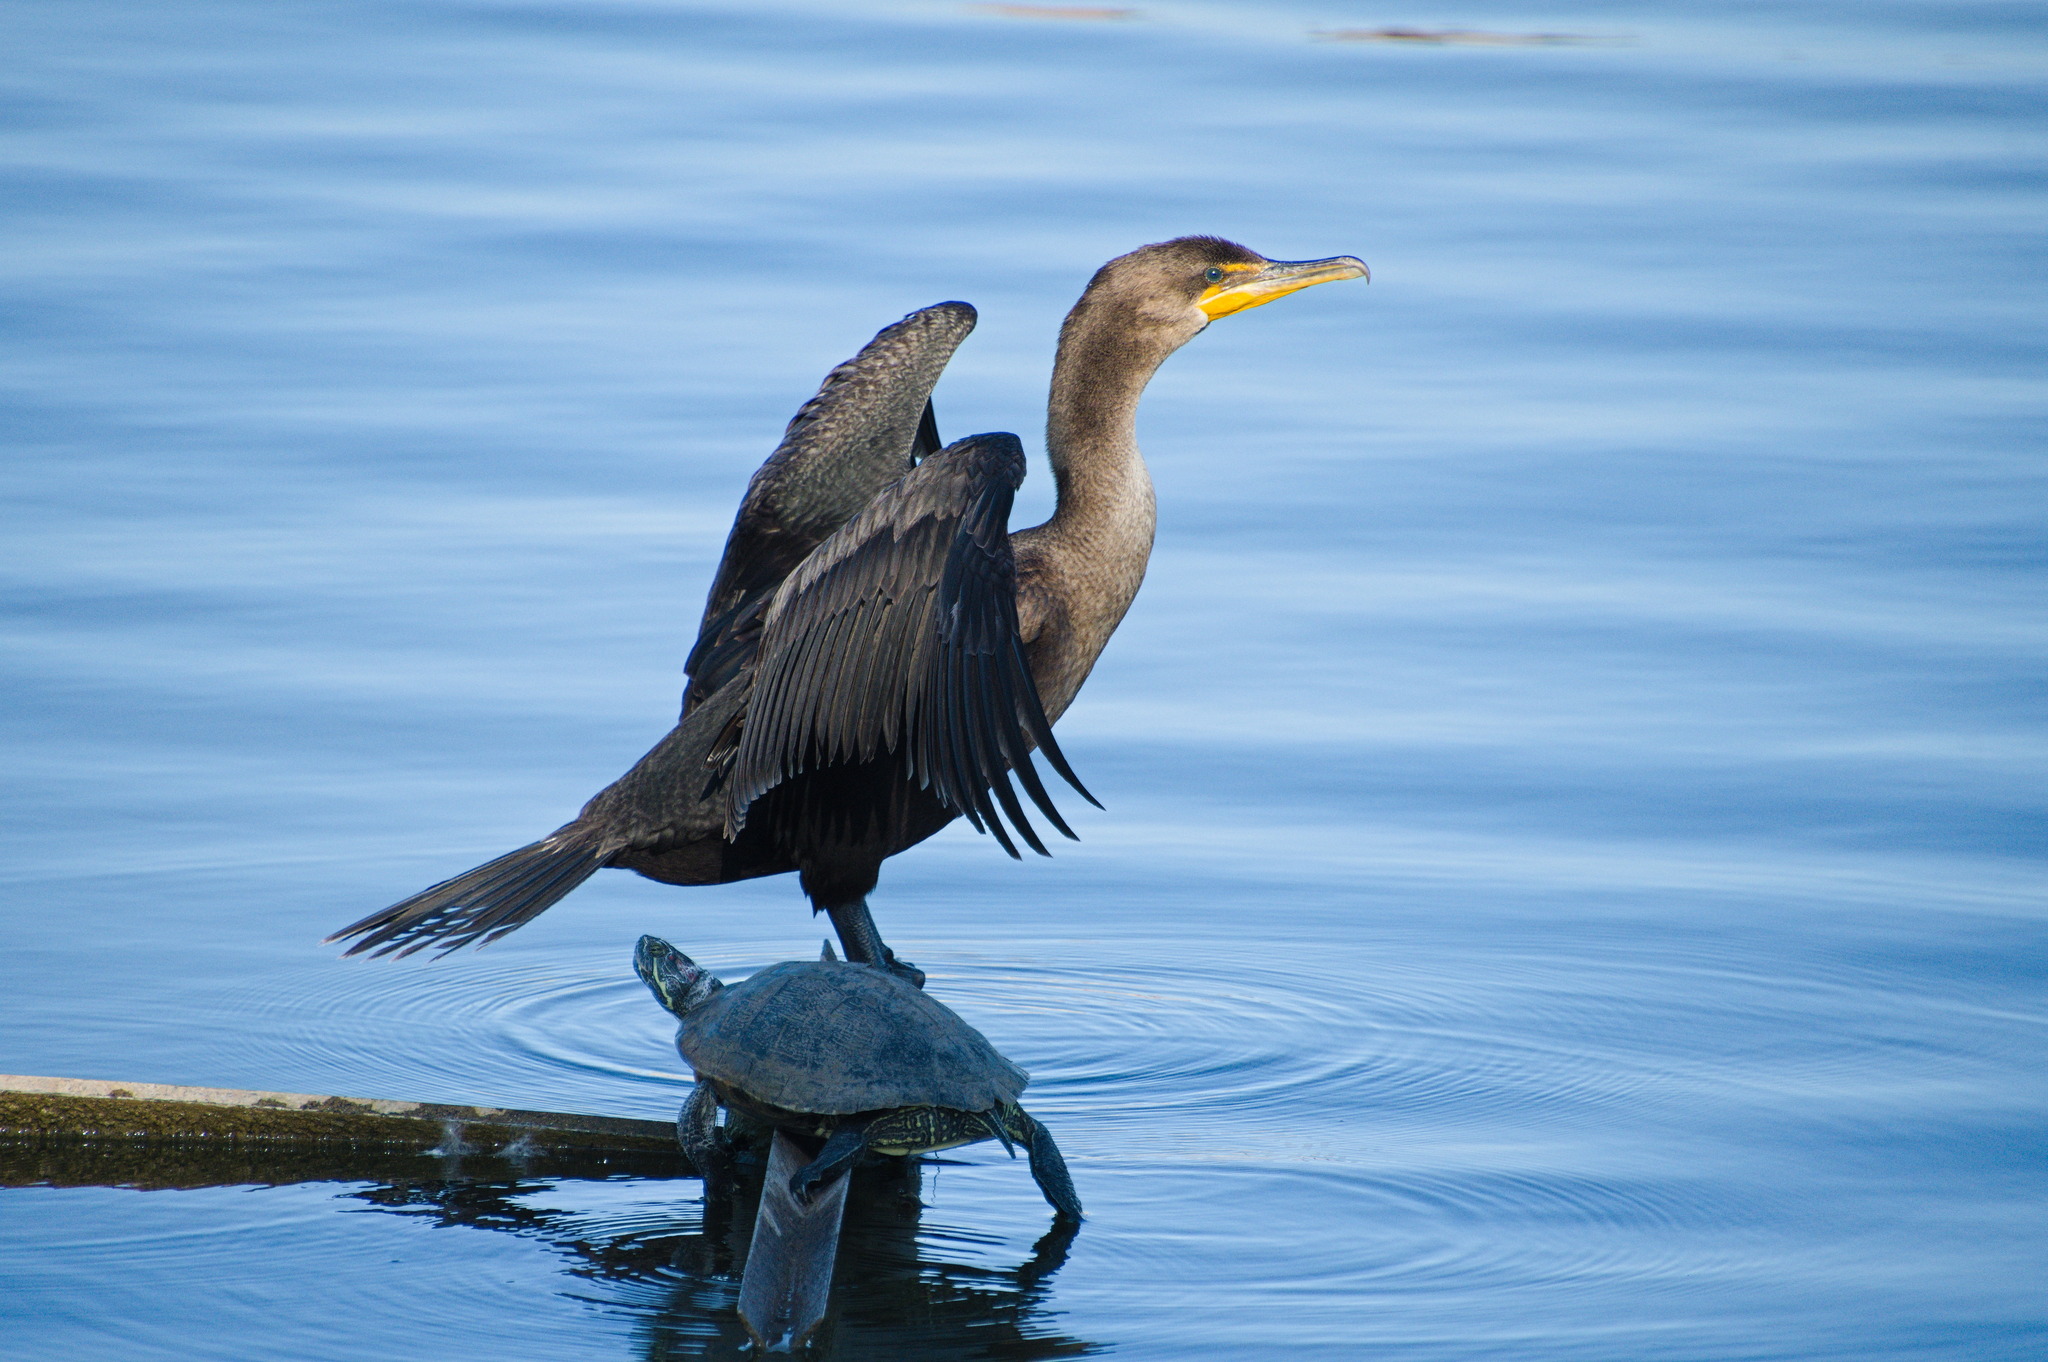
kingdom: Animalia
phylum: Chordata
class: Aves
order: Suliformes
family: Phalacrocoracidae
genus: Phalacrocorax
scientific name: Phalacrocorax auritus
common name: Double-crested cormorant
